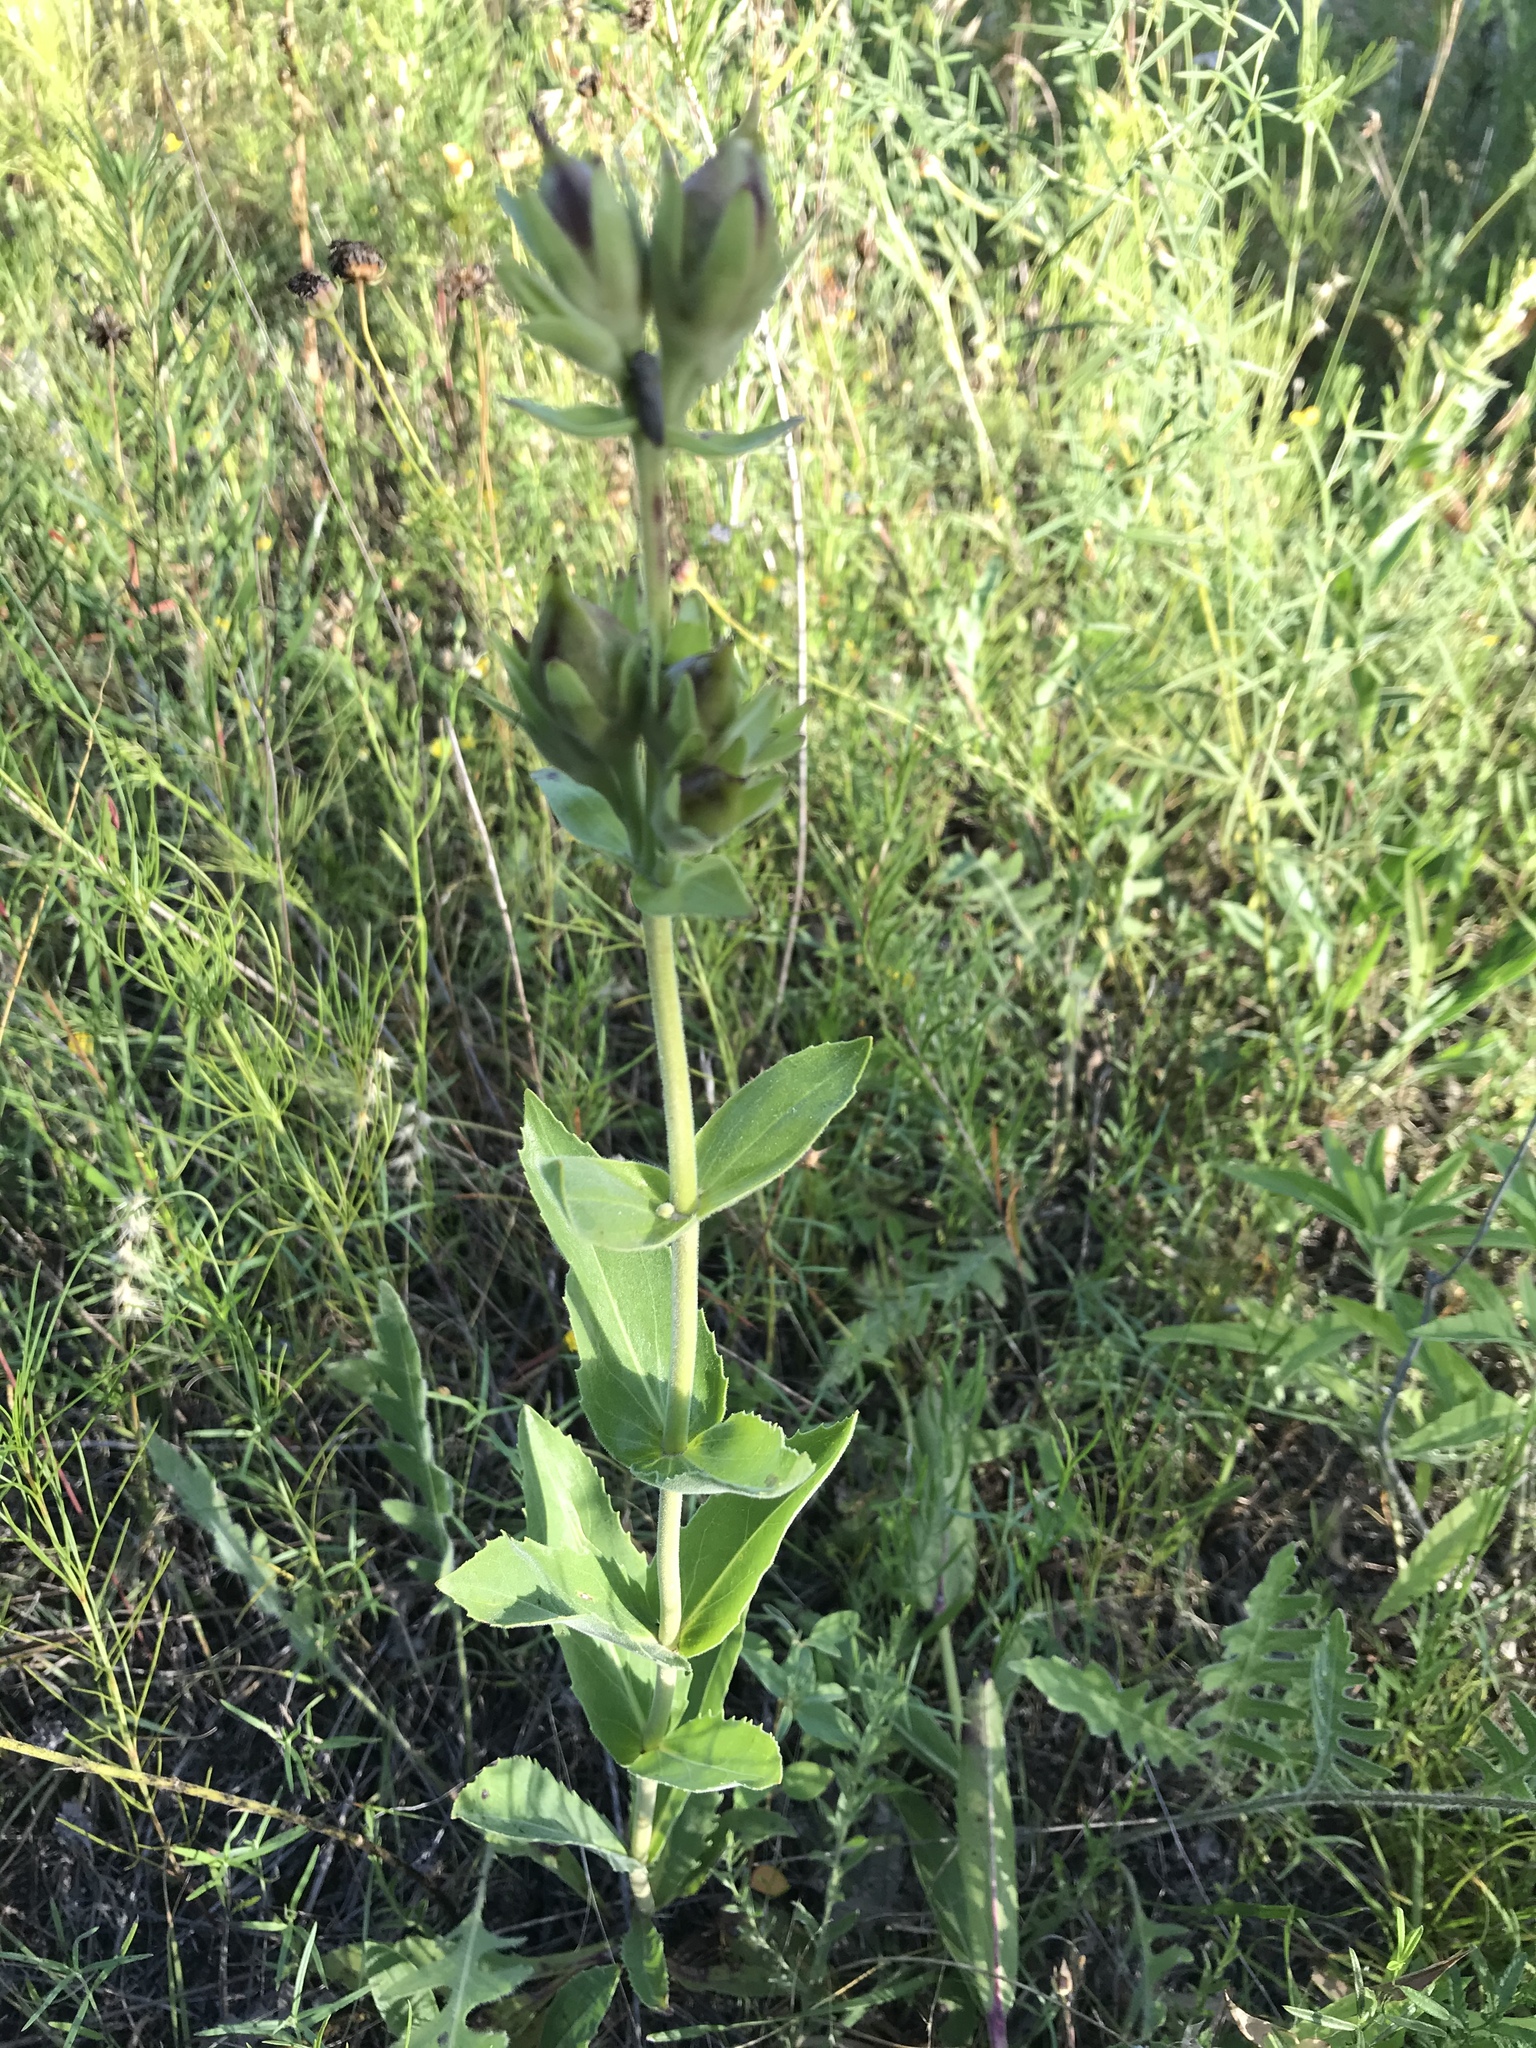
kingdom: Plantae
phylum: Tracheophyta
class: Magnoliopsida
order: Lamiales
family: Plantaginaceae
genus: Penstemon
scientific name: Penstemon cobaea
